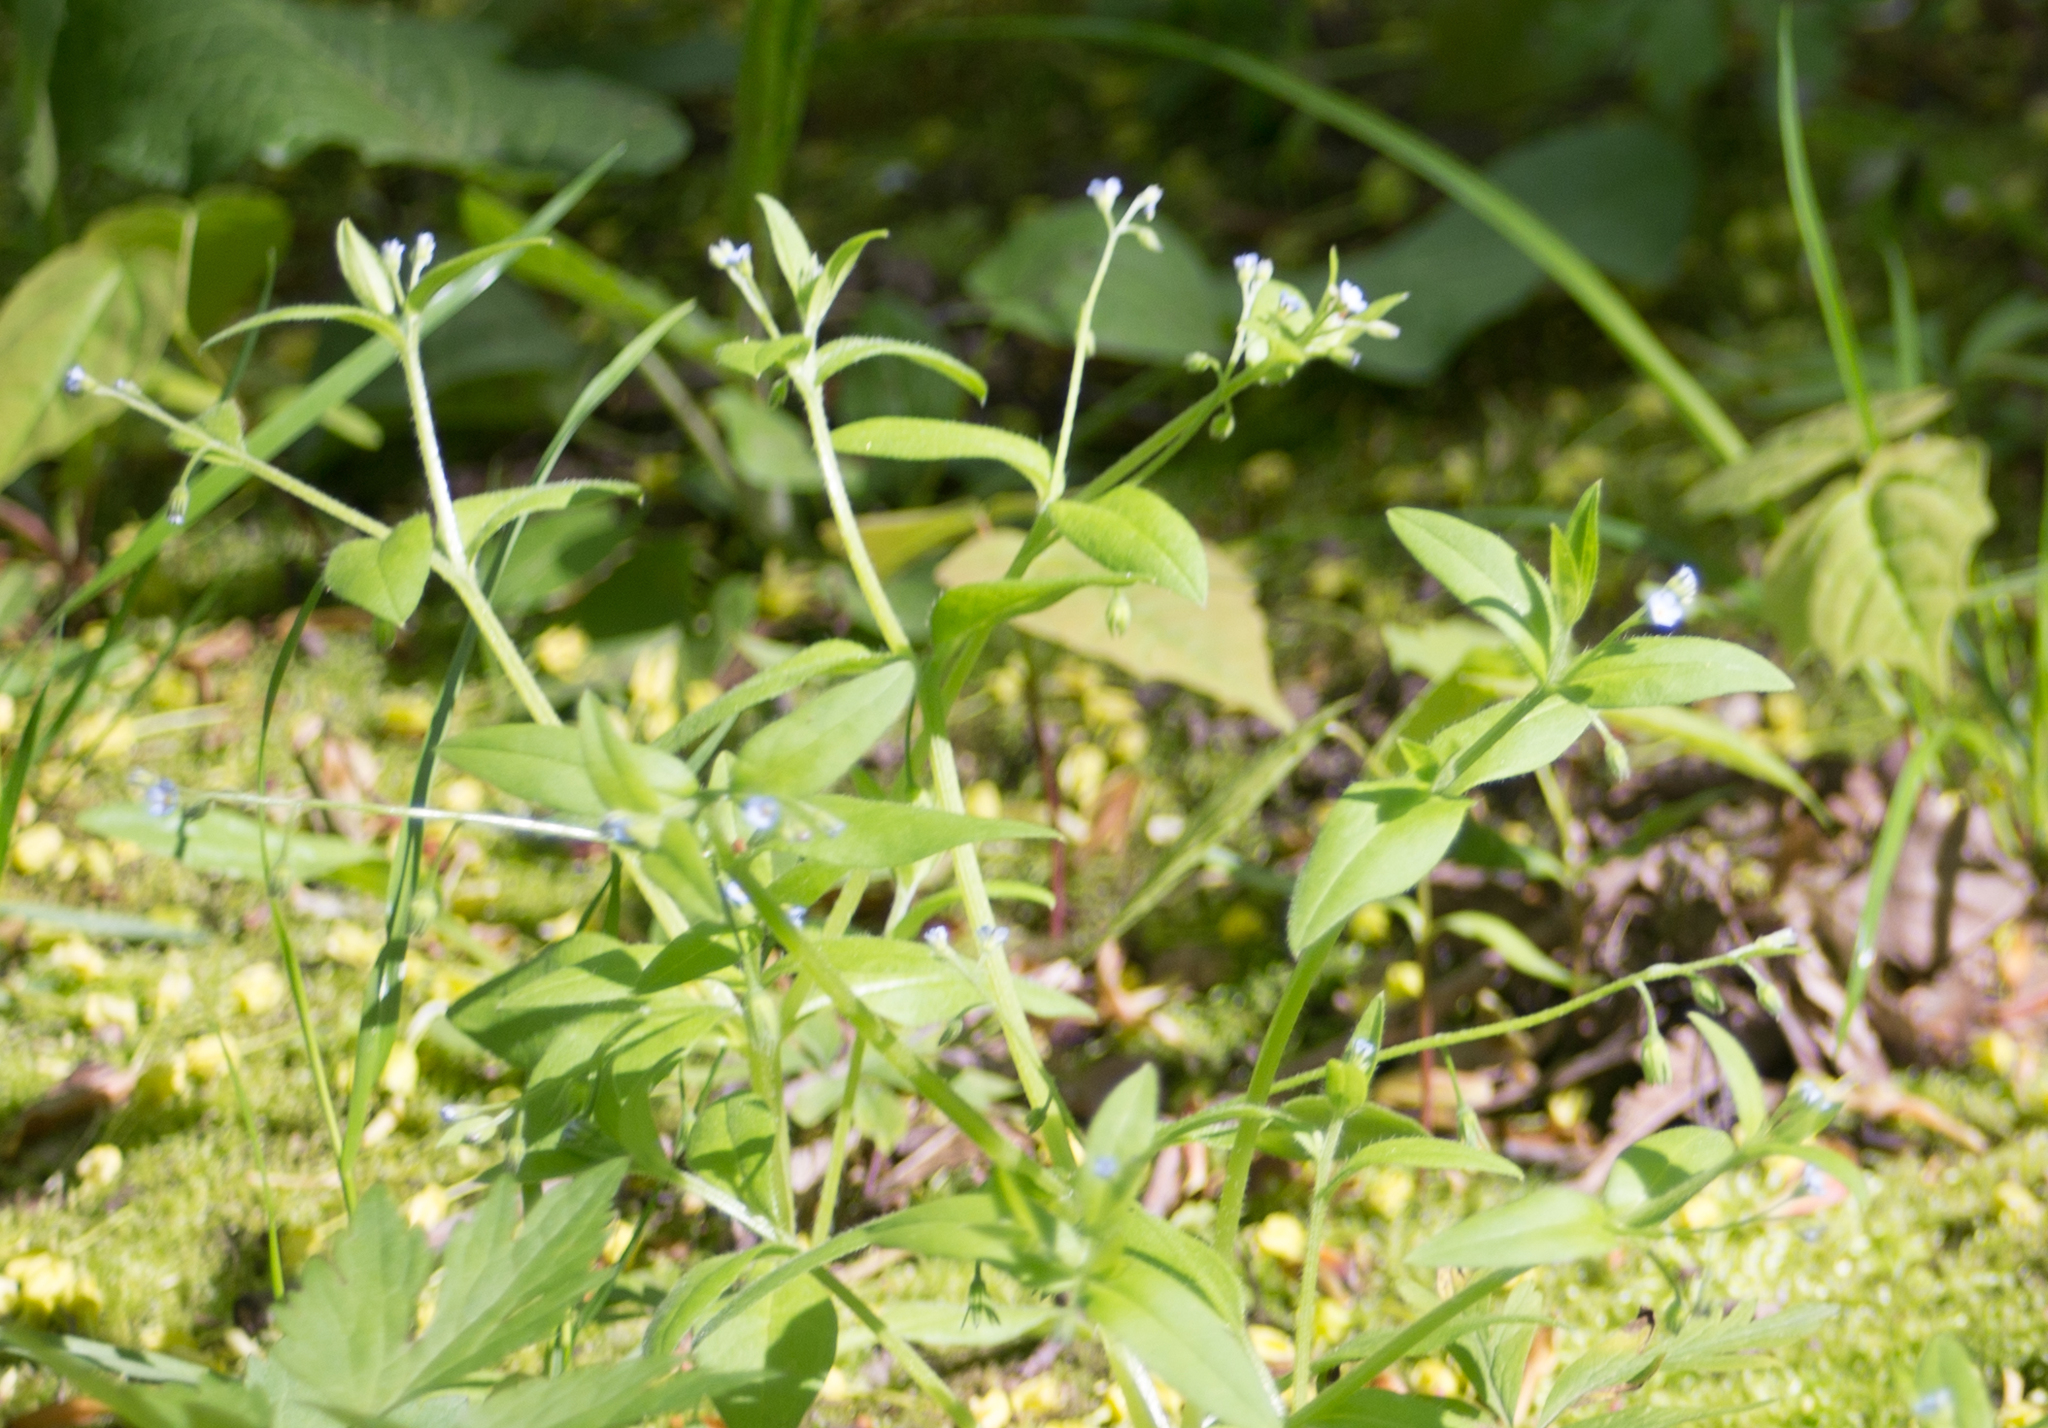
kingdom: Plantae
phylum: Tracheophyta
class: Magnoliopsida
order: Boraginales
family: Boraginaceae
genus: Myosotis
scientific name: Myosotis sparsiflora
